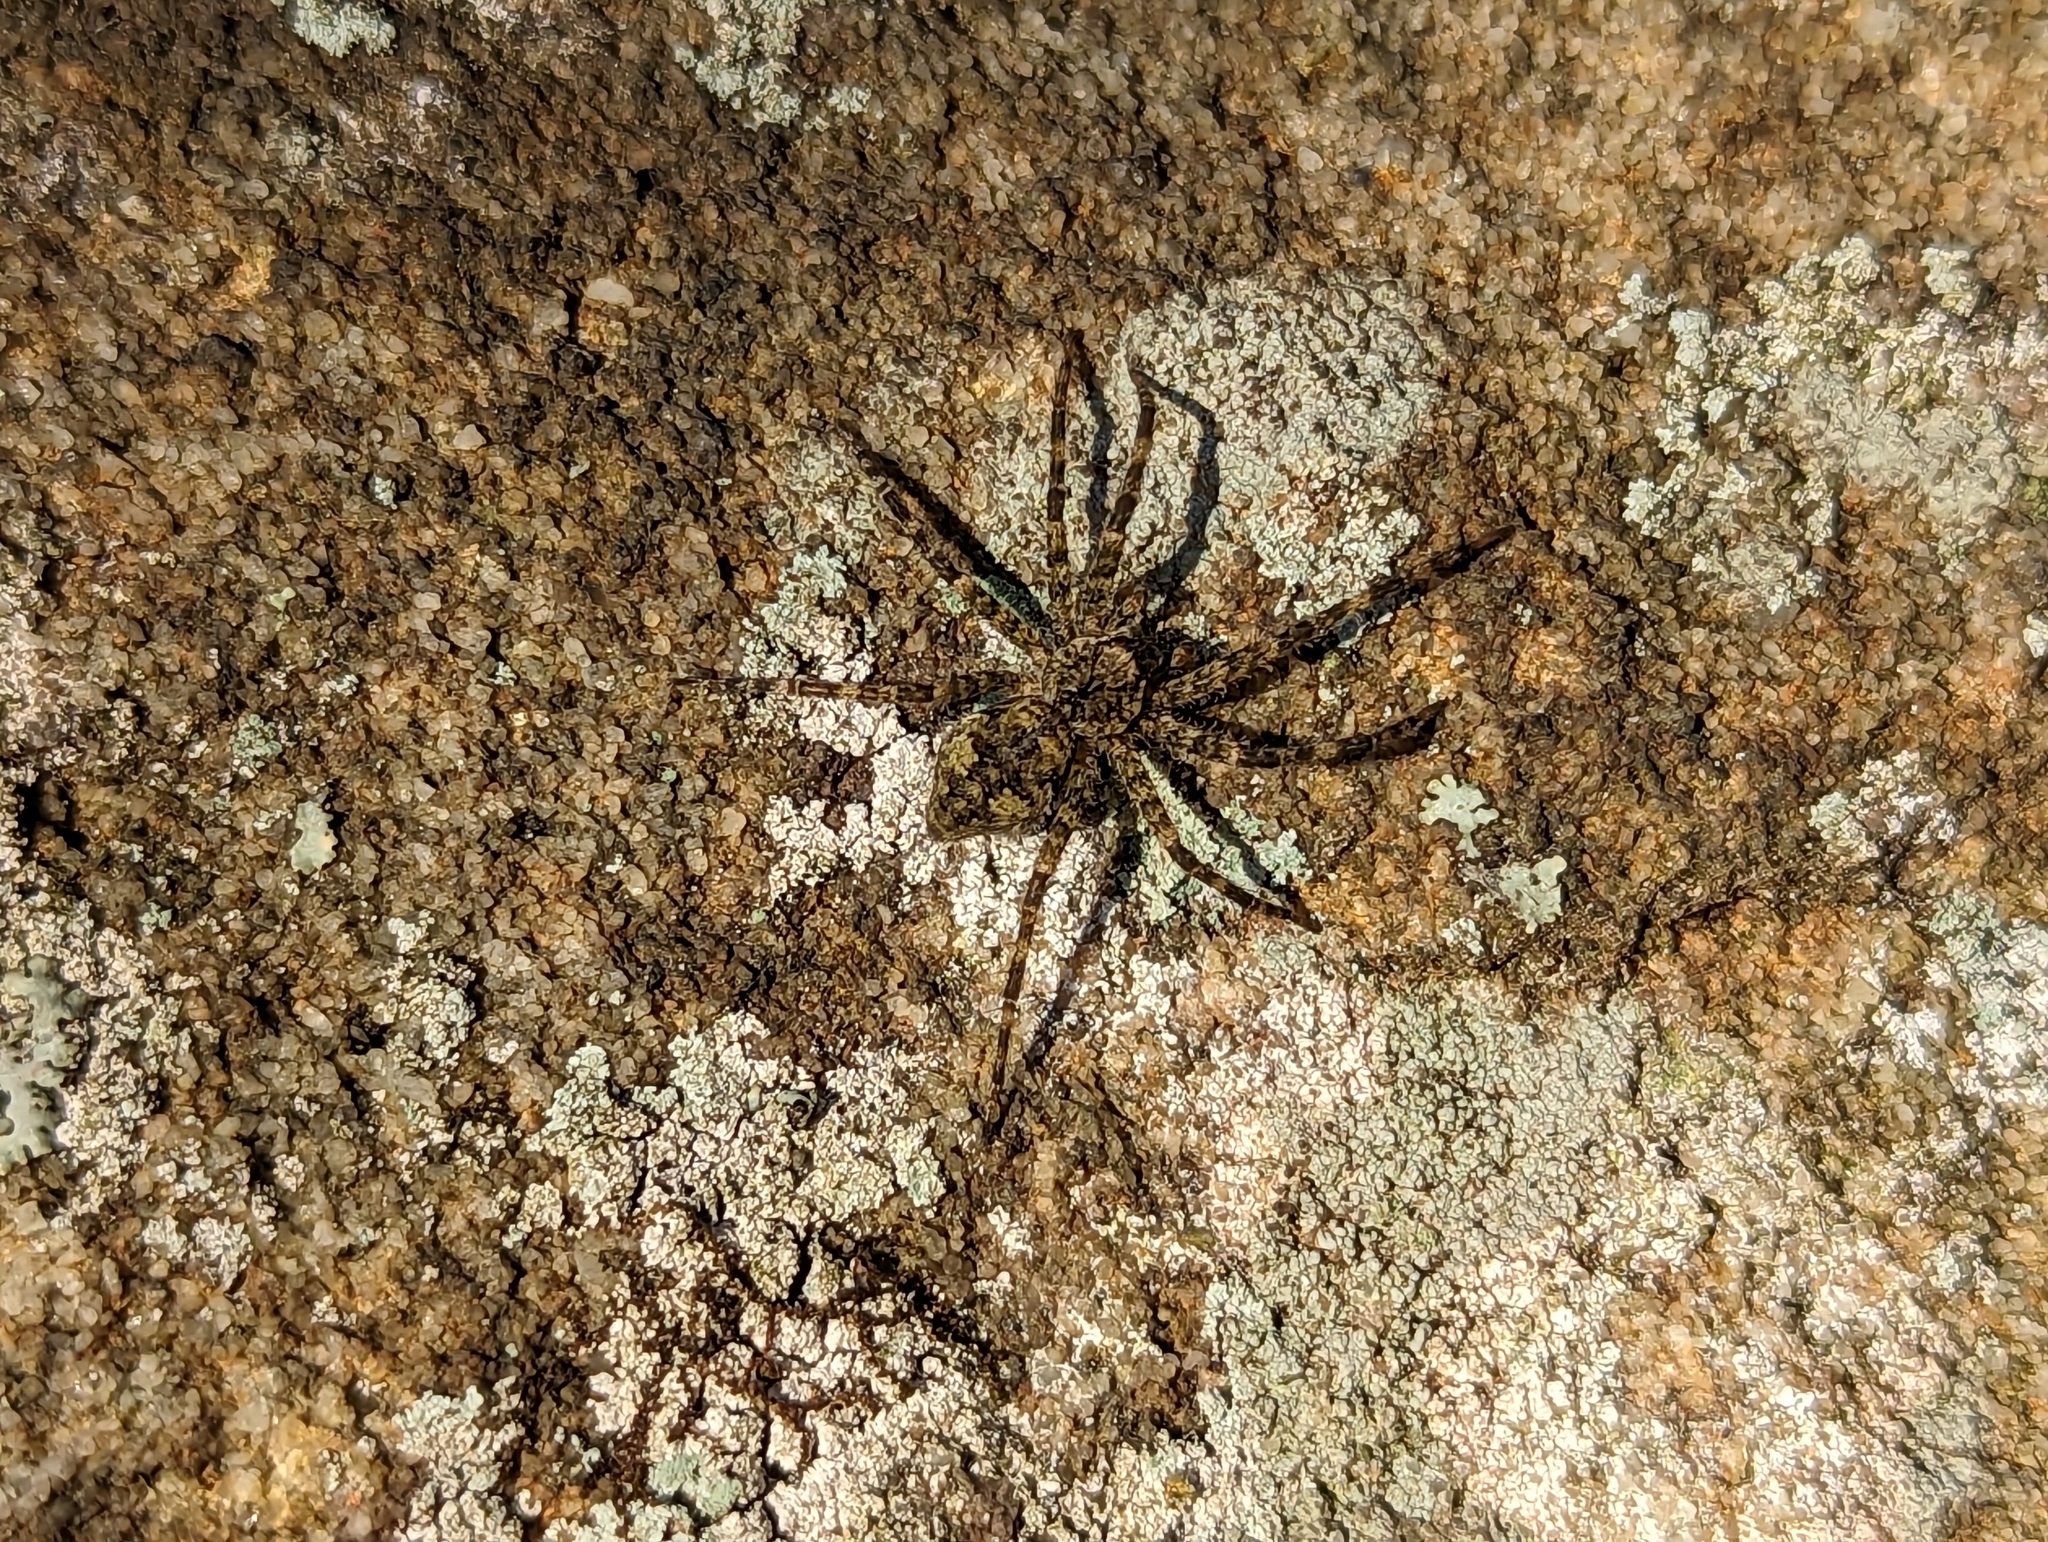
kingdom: Animalia
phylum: Arthropoda
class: Arachnida
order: Araneae
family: Pisauridae
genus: Dolomedes
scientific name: Dolomedes albineus
